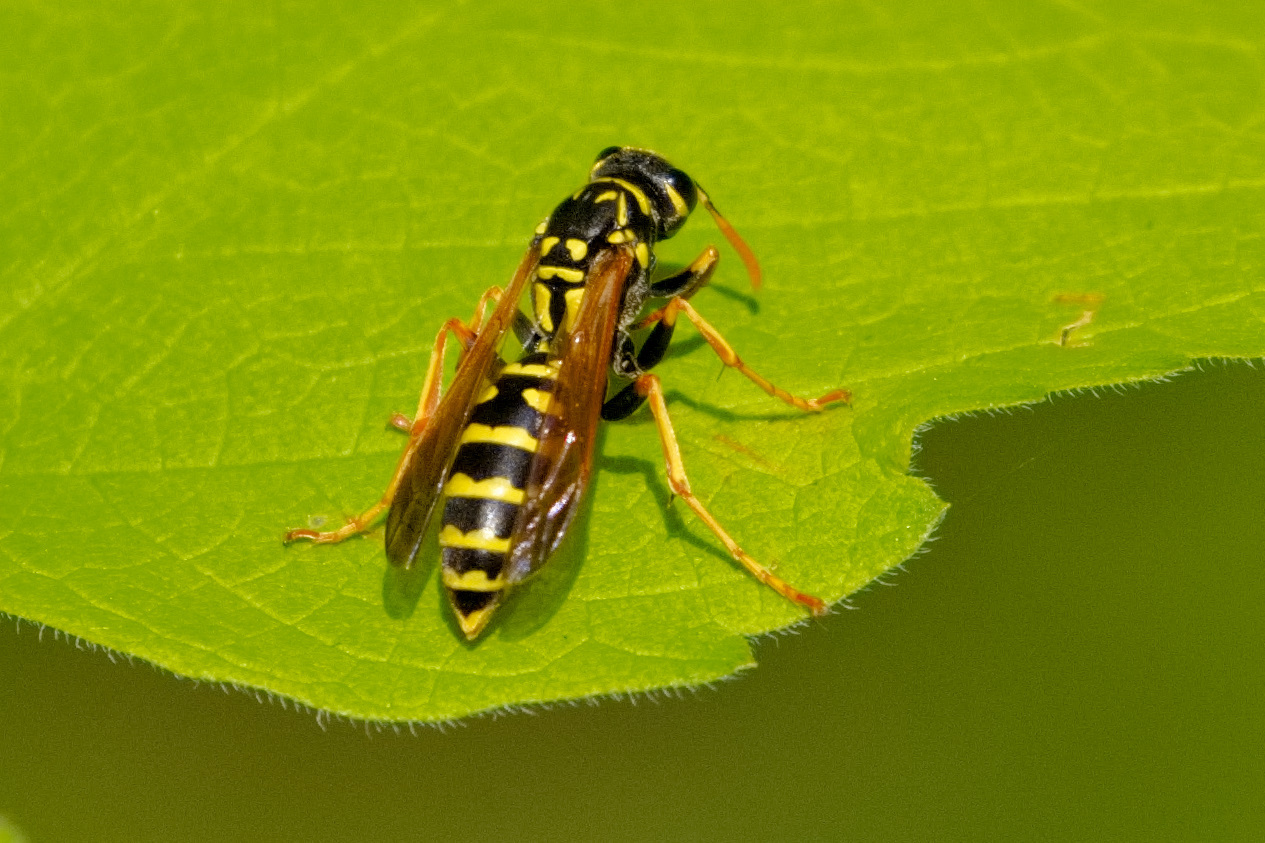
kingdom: Animalia
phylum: Arthropoda
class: Insecta
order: Hymenoptera
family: Eumenidae
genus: Polistes
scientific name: Polistes dominula
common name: Paper wasp
